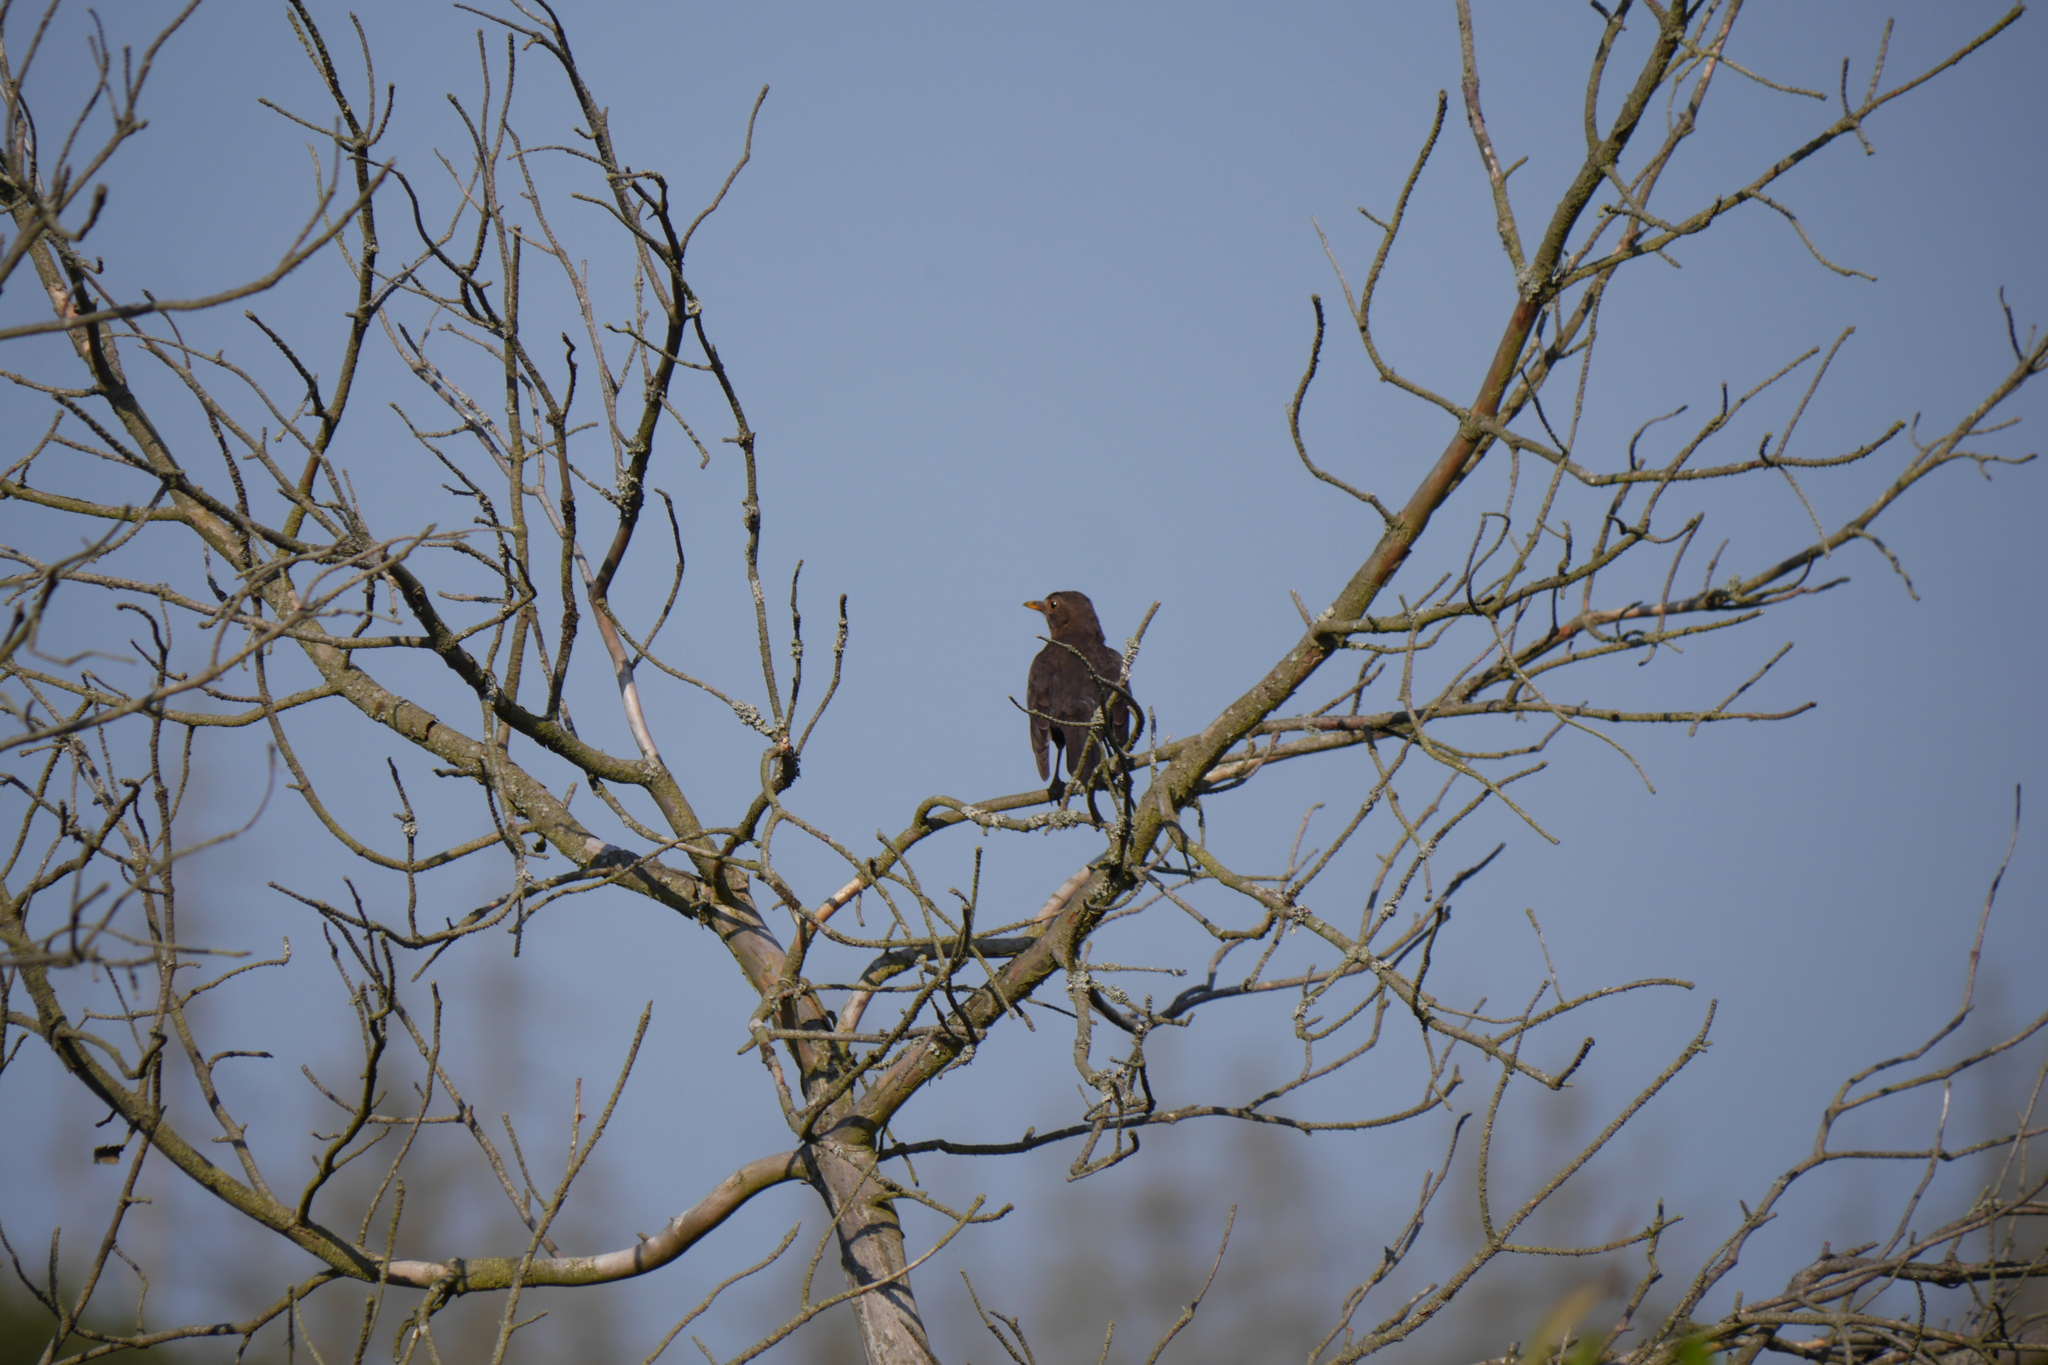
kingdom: Animalia
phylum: Chordata
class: Aves
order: Passeriformes
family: Turdidae
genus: Turdus
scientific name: Turdus merula
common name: Common blackbird
